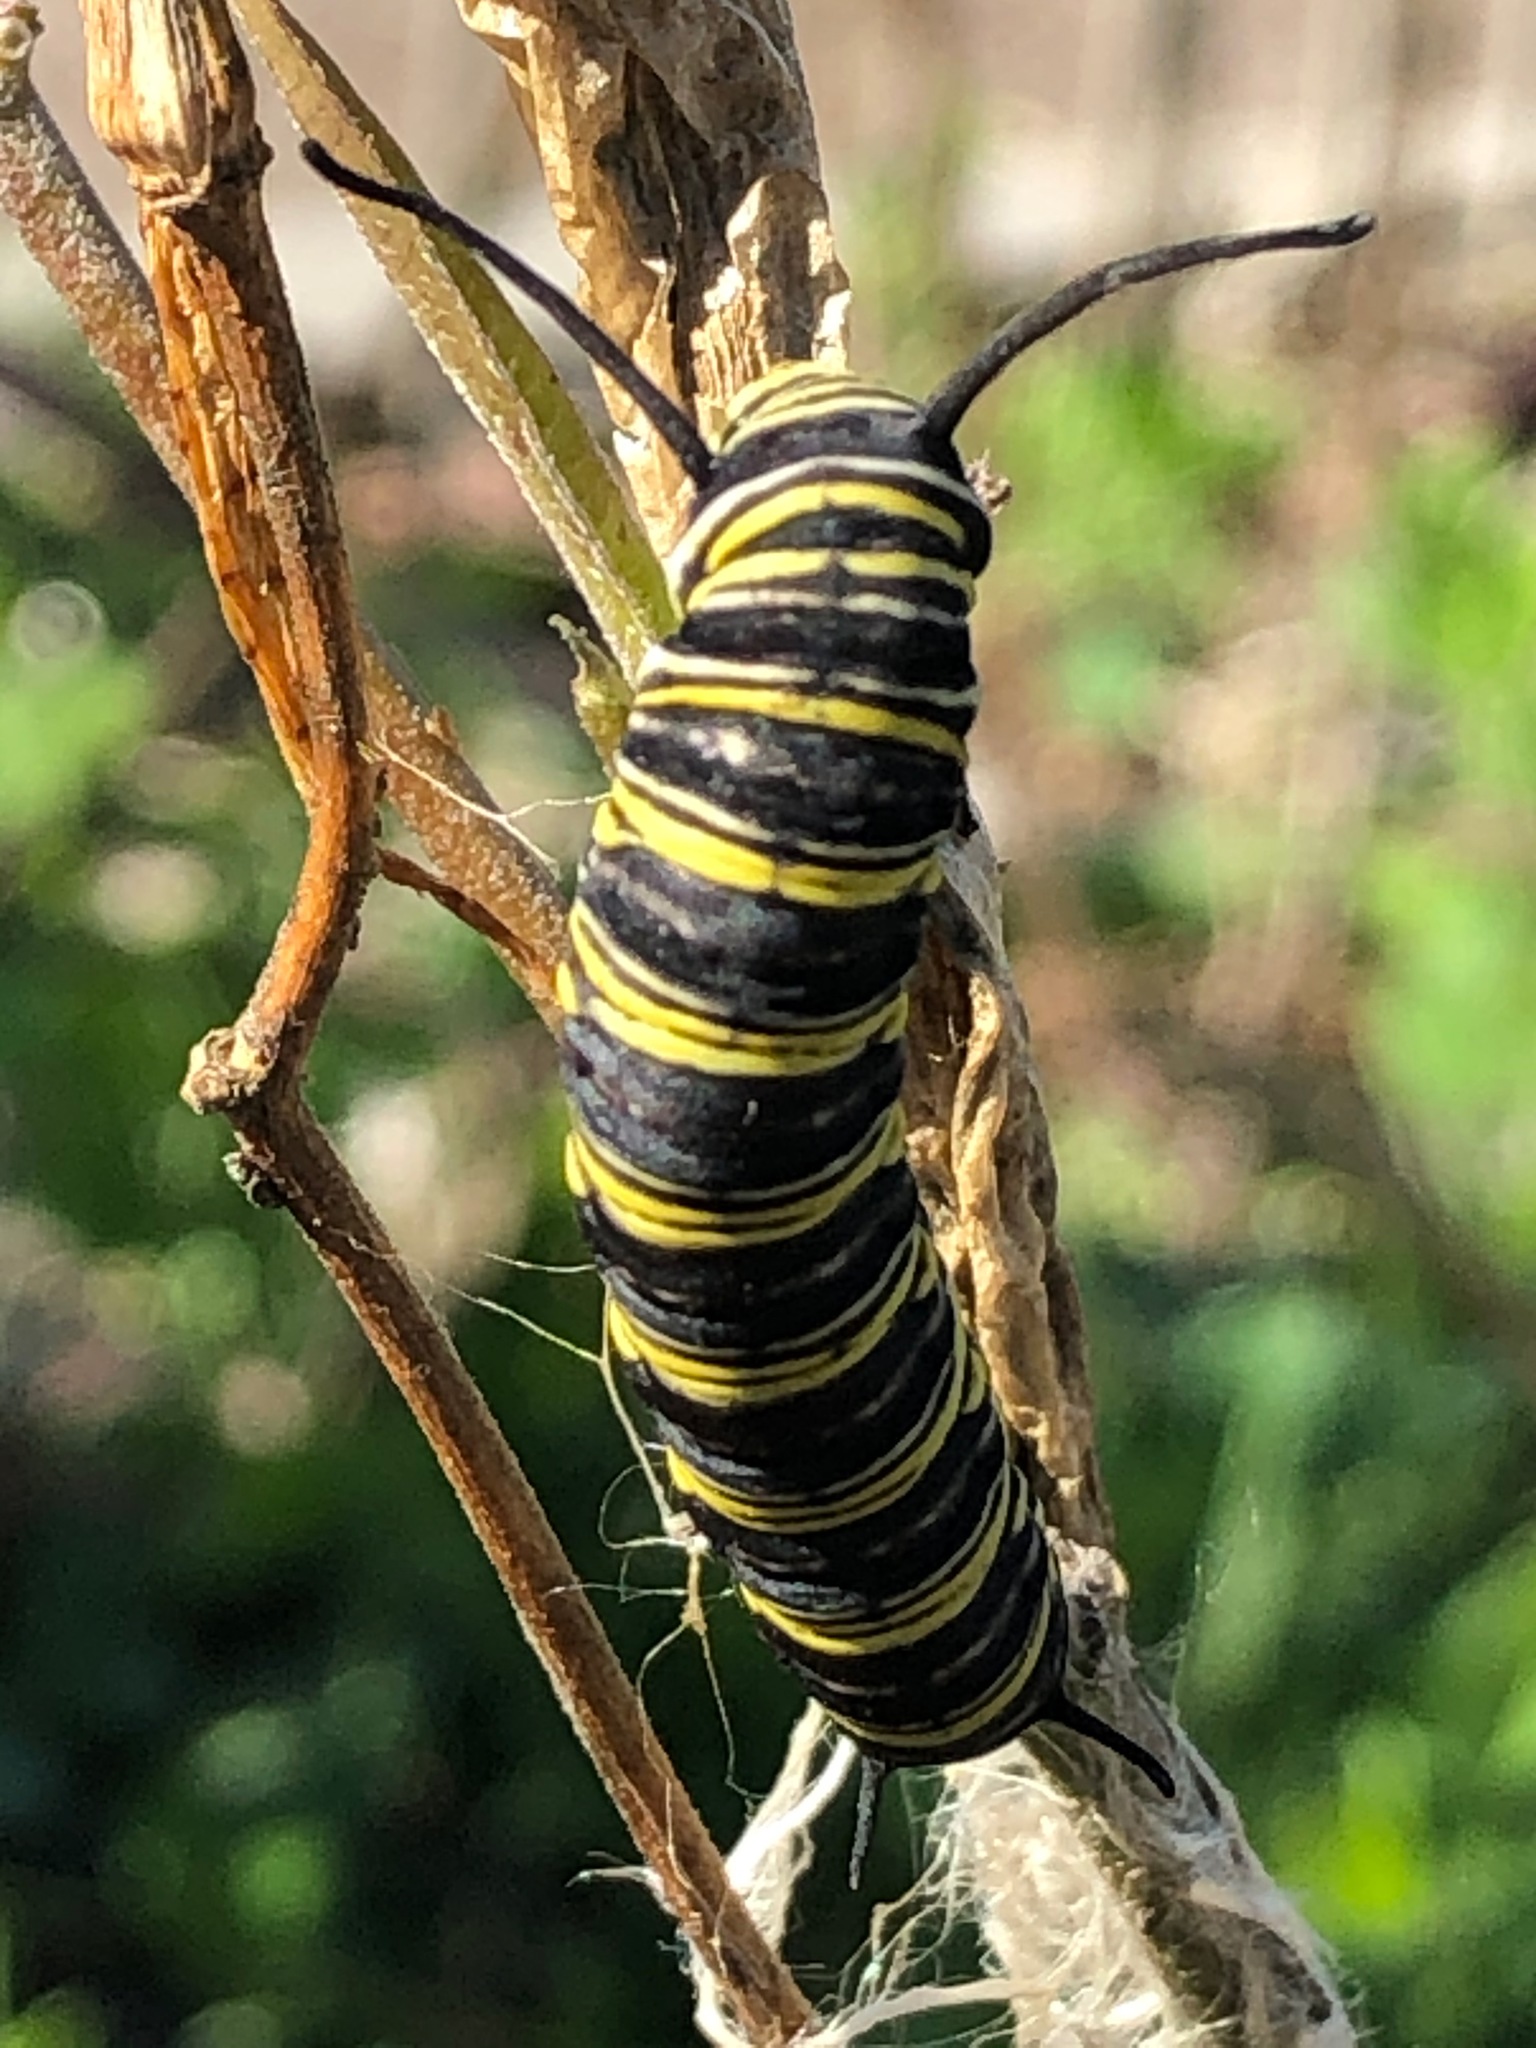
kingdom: Animalia
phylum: Arthropoda
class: Insecta
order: Lepidoptera
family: Nymphalidae
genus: Danaus
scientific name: Danaus plexippus
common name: Monarch
